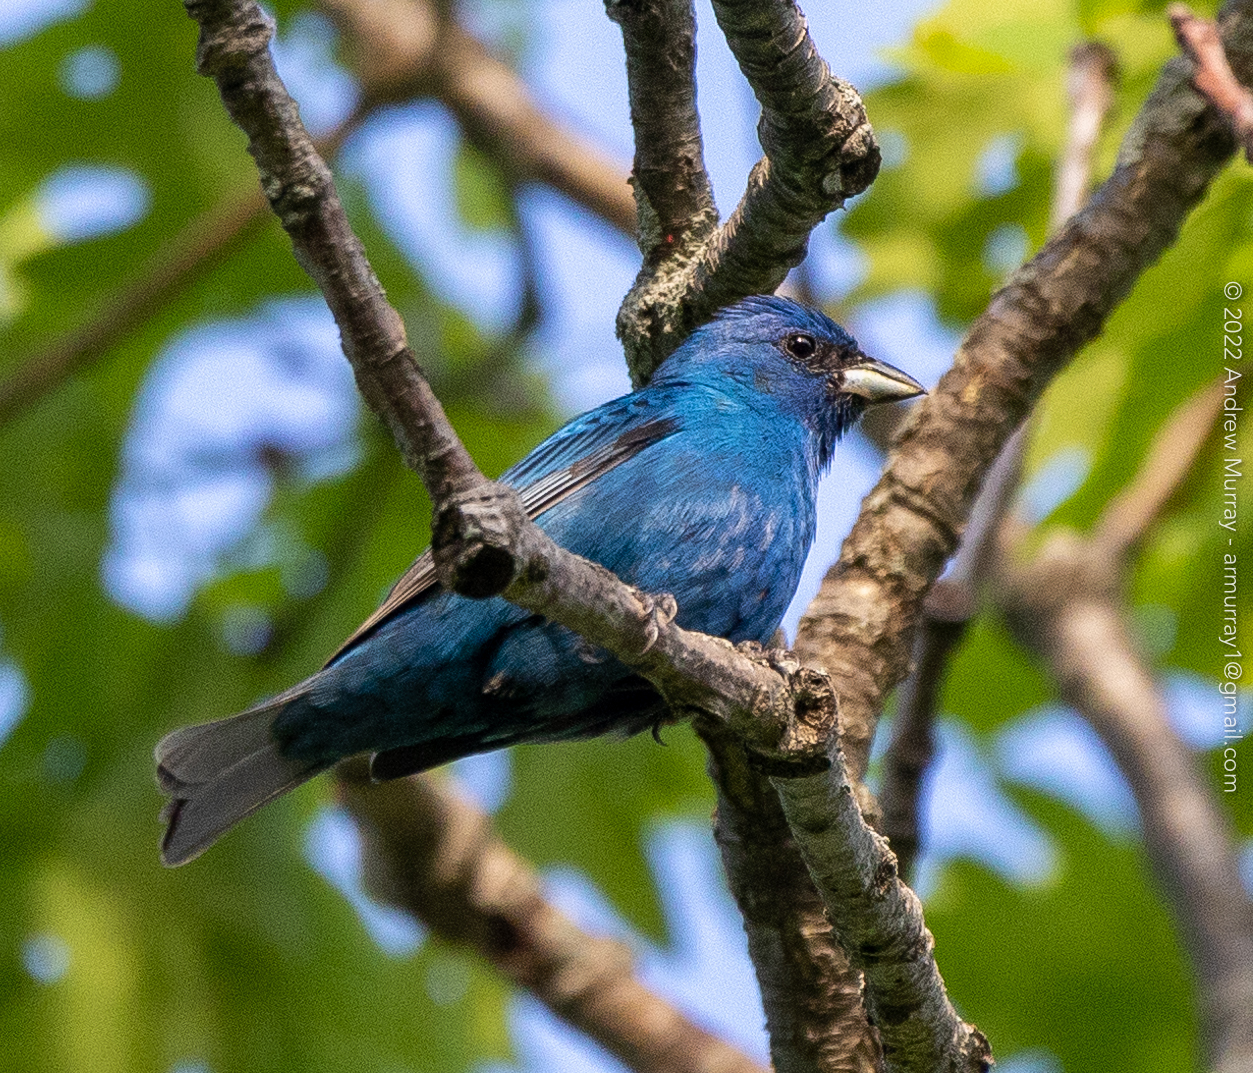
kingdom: Animalia
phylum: Chordata
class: Aves
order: Passeriformes
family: Cardinalidae
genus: Passerina
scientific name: Passerina cyanea
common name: Indigo bunting
